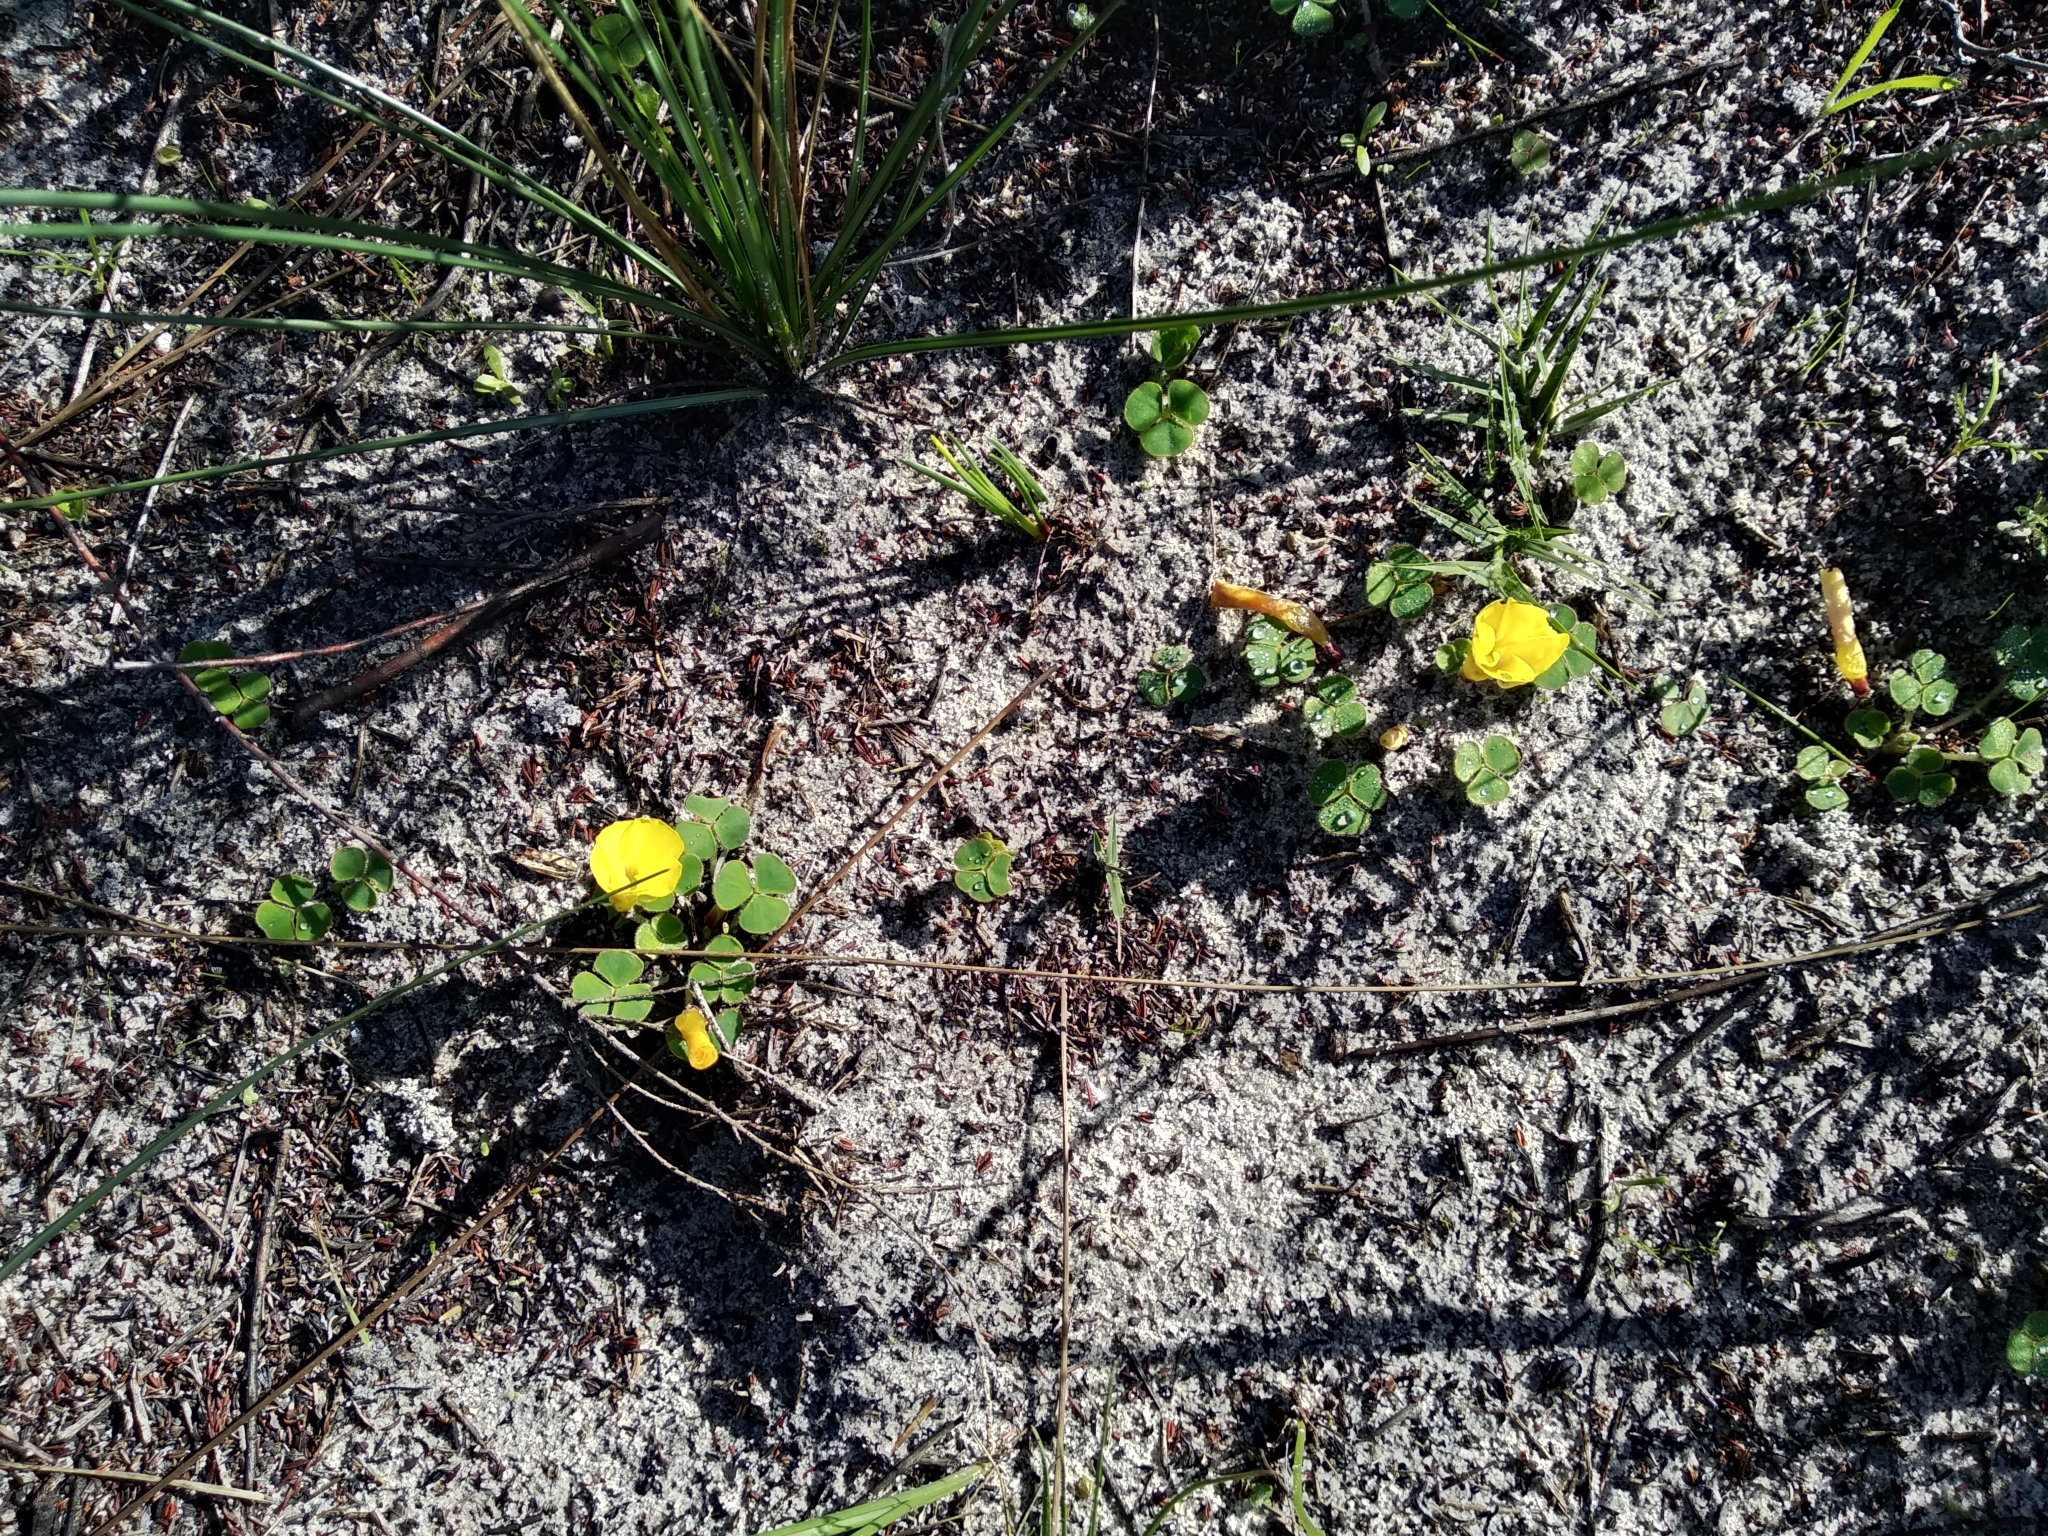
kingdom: Plantae
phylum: Tracheophyta
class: Magnoliopsida
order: Oxalidales
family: Oxalidaceae
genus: Oxalis
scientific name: Oxalis luteola
